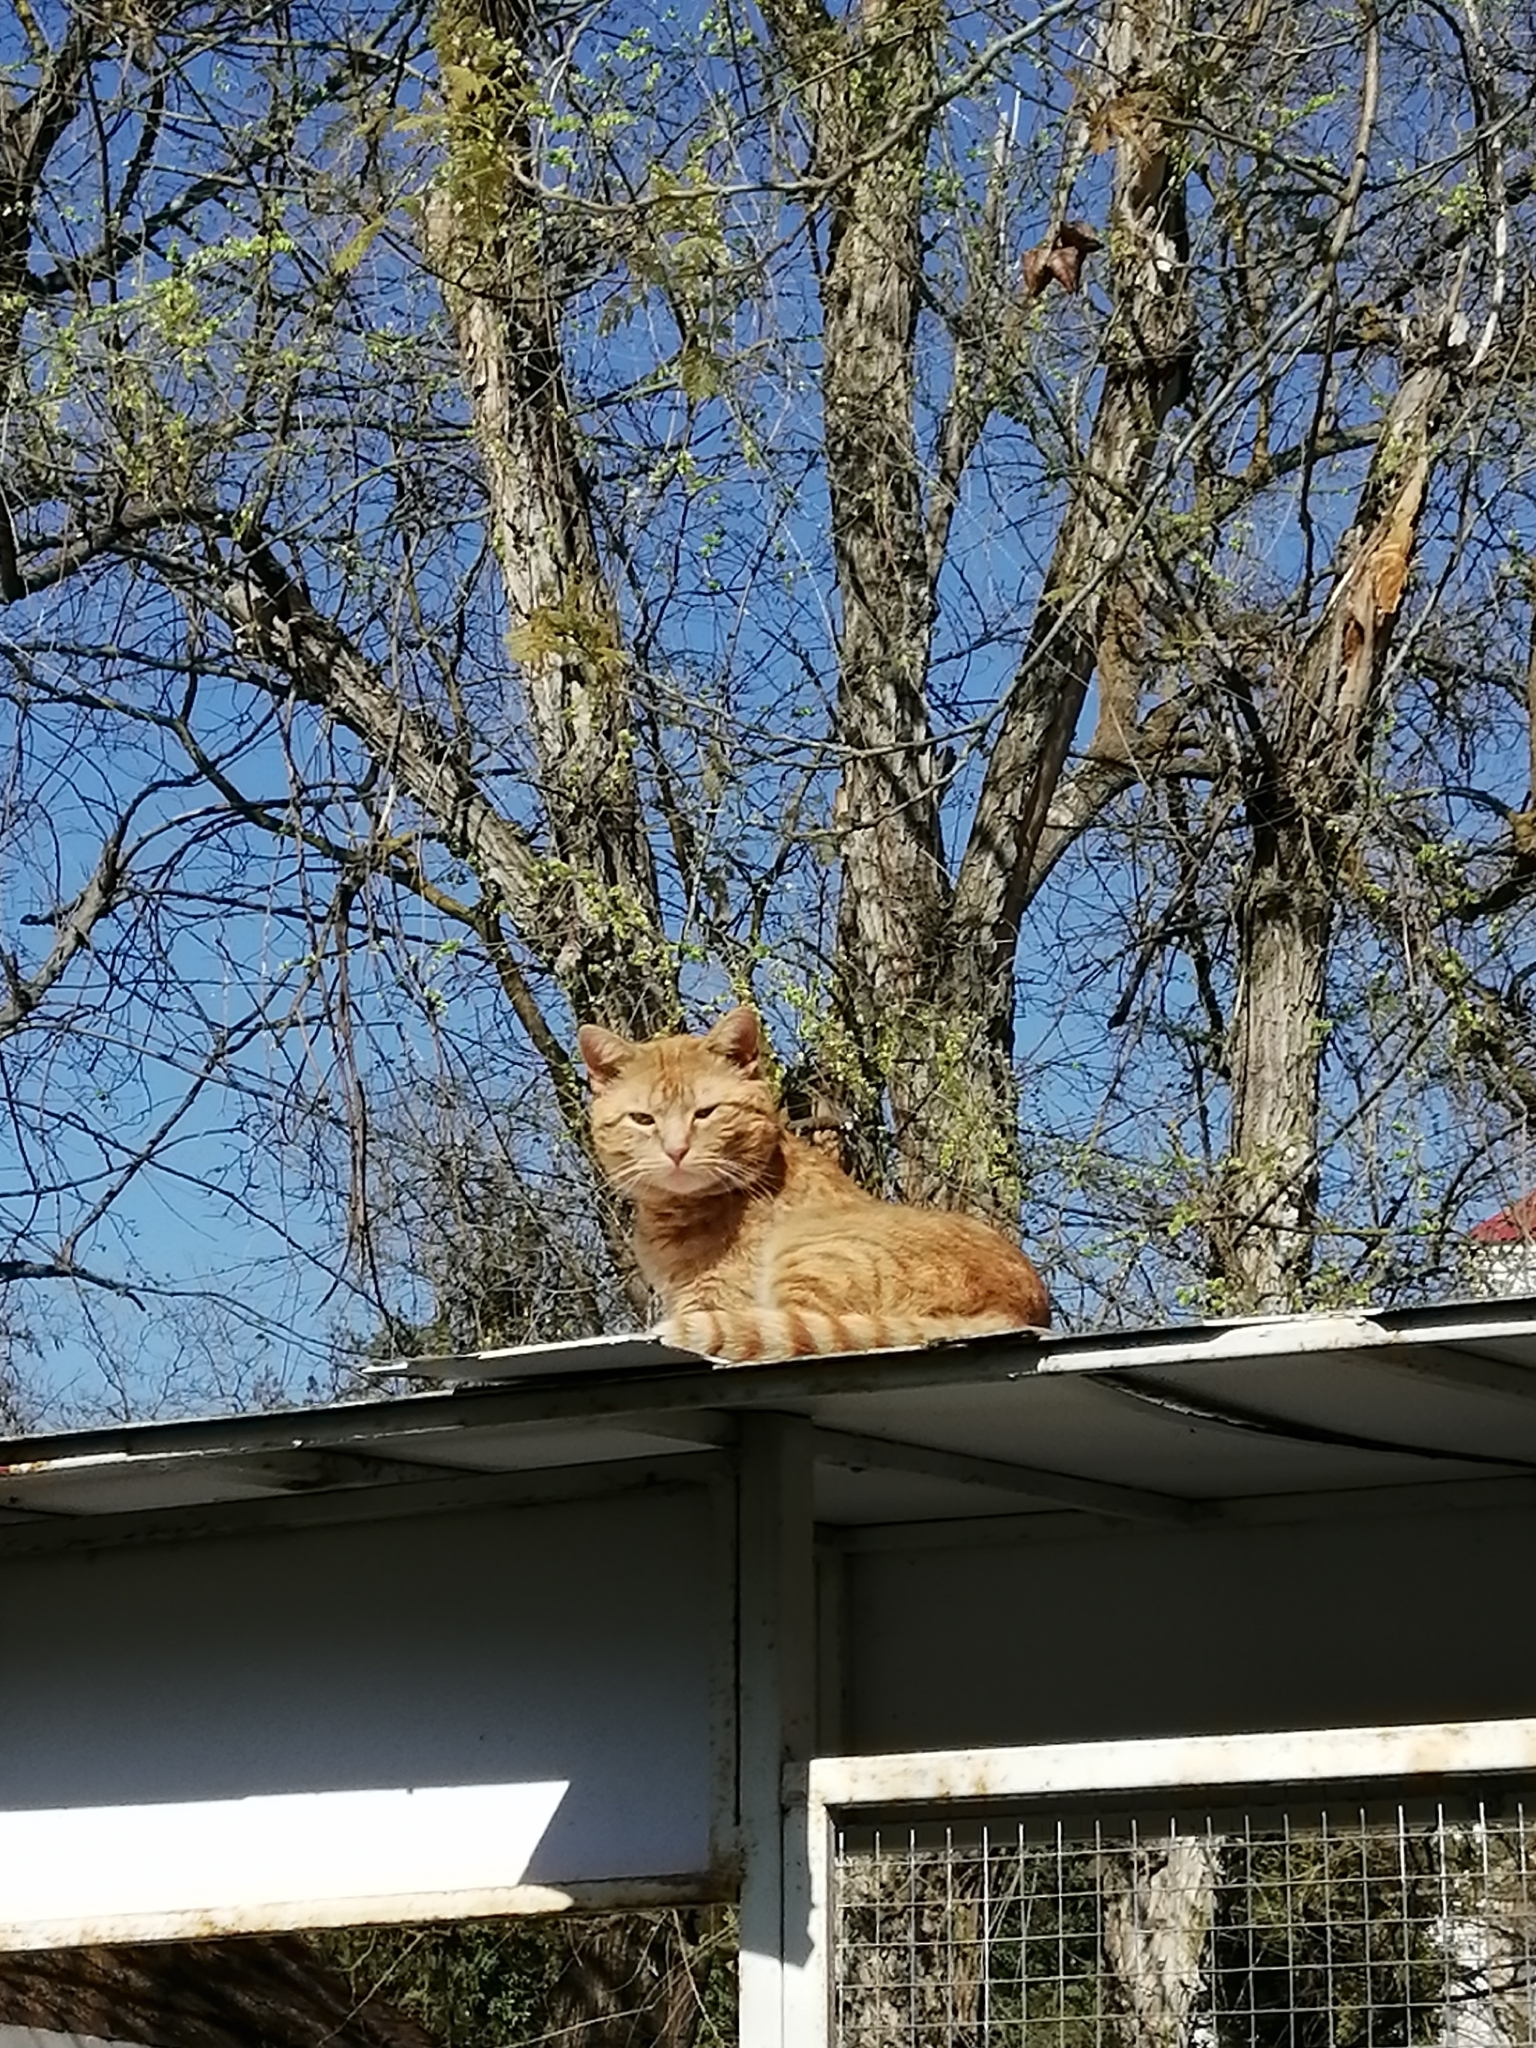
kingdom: Animalia
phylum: Chordata
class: Mammalia
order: Carnivora
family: Felidae
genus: Felis
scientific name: Felis catus
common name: Domestic cat
